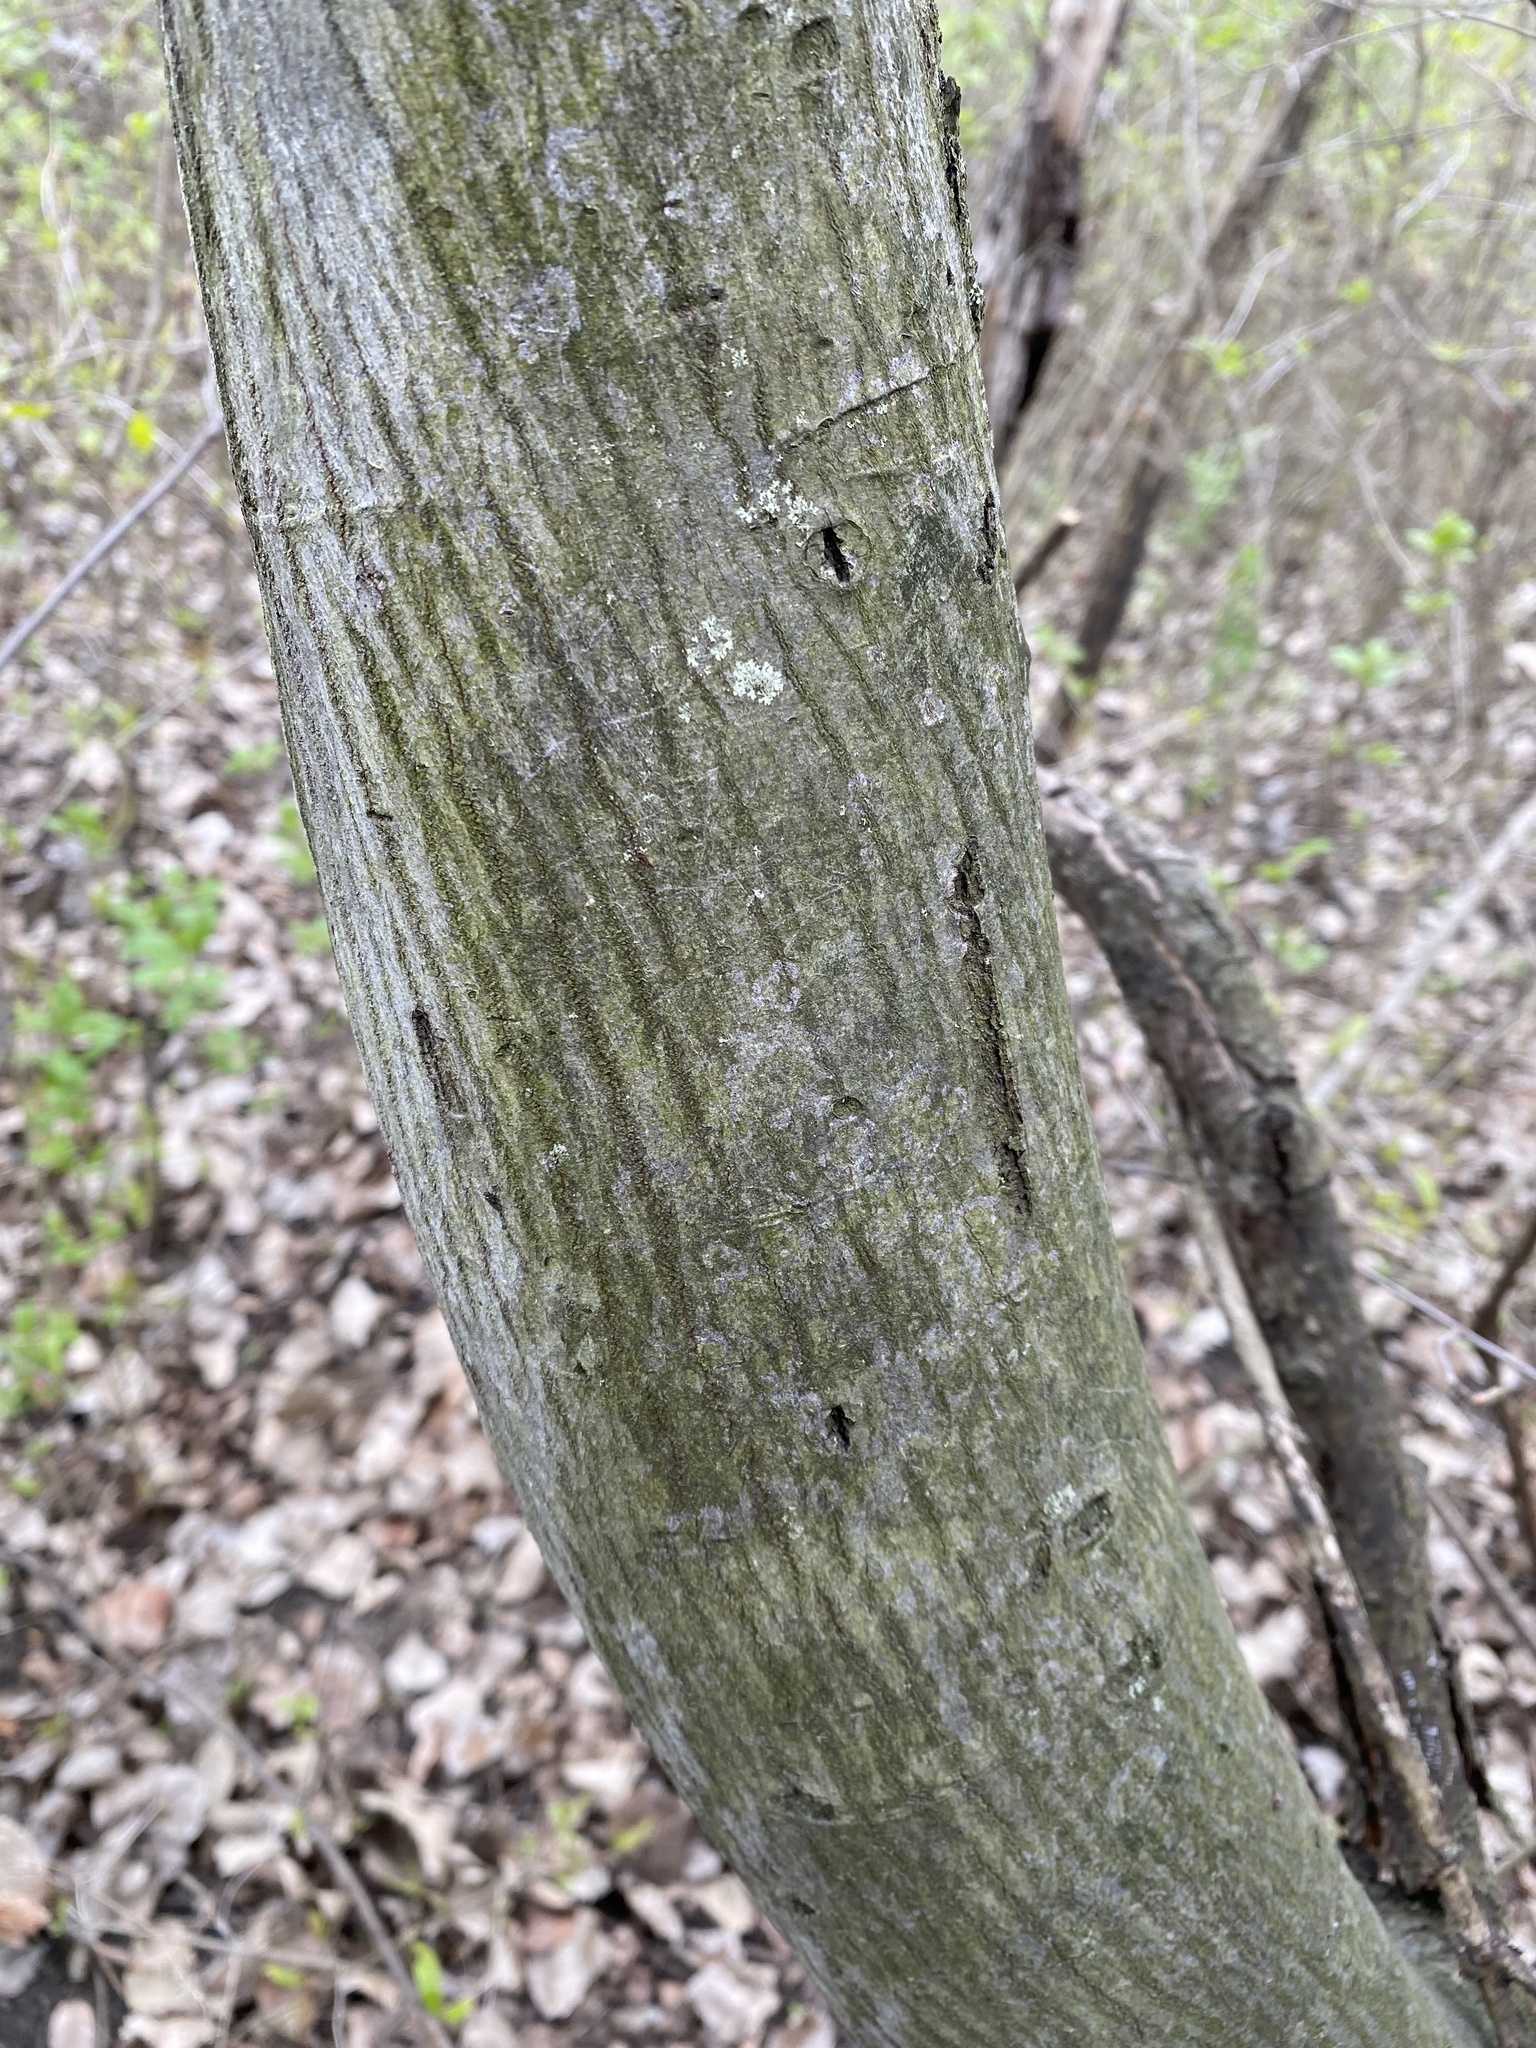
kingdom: Plantae
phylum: Tracheophyta
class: Magnoliopsida
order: Rosales
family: Rosaceae
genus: Amelanchier
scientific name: Amelanchier arborea
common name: Downy serviceberry
